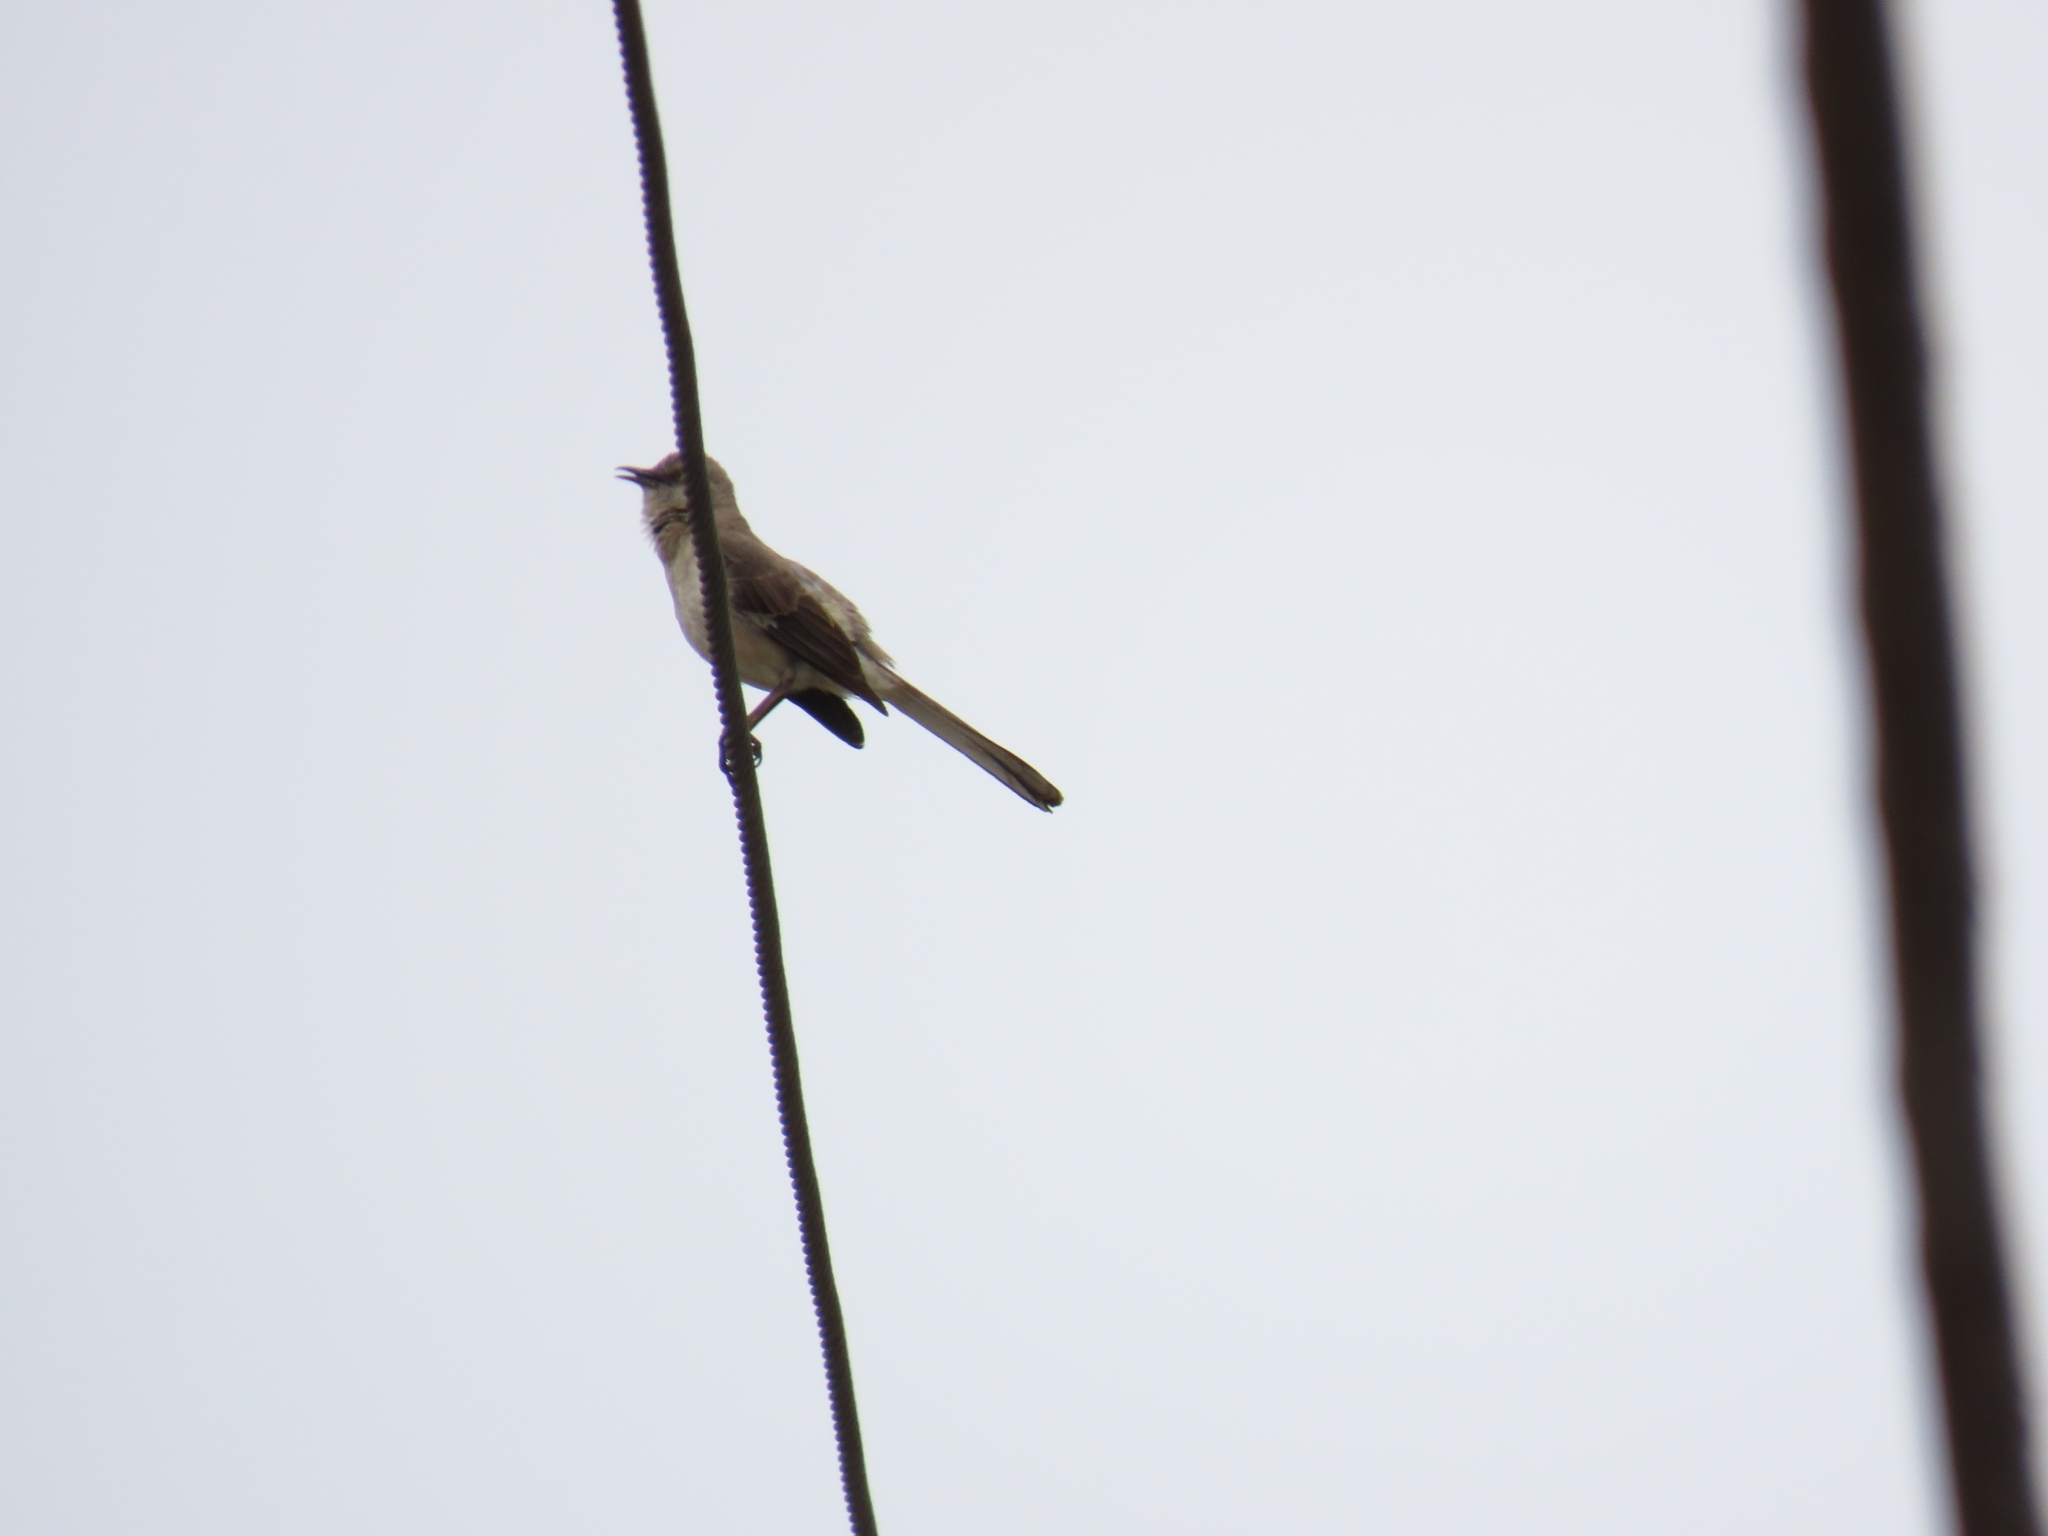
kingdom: Animalia
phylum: Chordata
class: Aves
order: Passeriformes
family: Mimidae
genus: Mimus
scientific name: Mimus polyglottos
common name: Northern mockingbird
